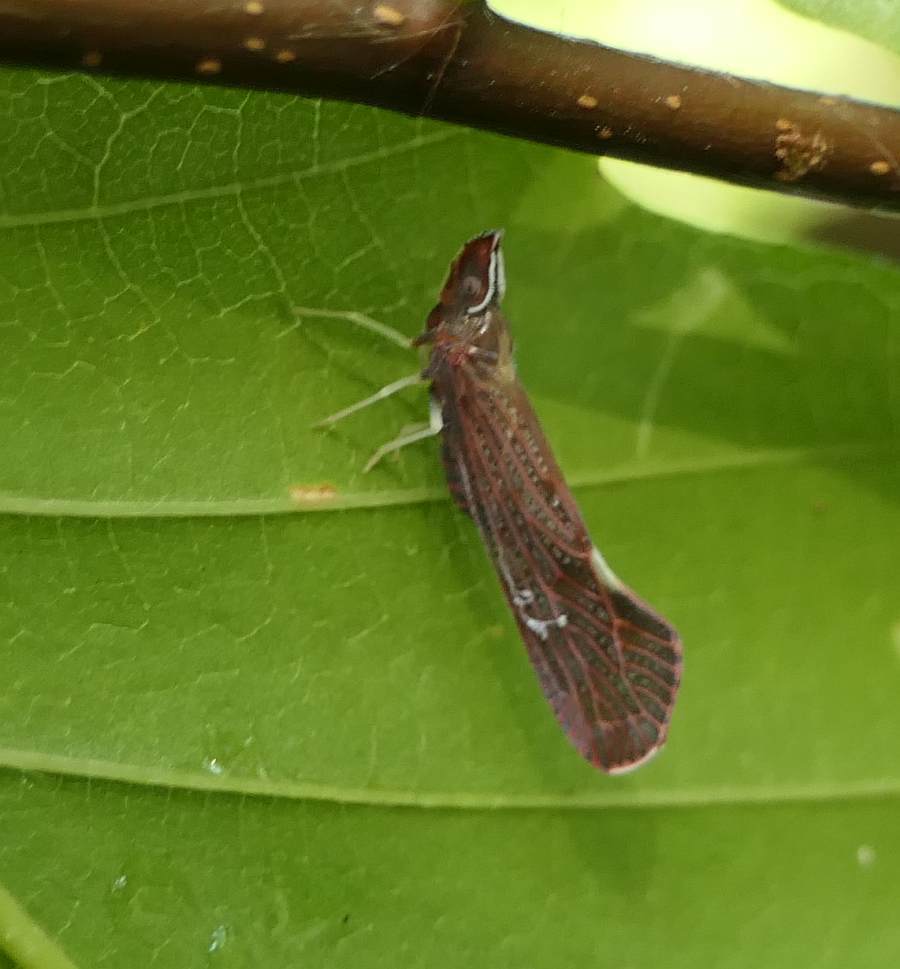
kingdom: Animalia
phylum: Arthropoda
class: Insecta
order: Hemiptera
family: Derbidae
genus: Apache
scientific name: Apache degeeri
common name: Red-fanned planthopper
